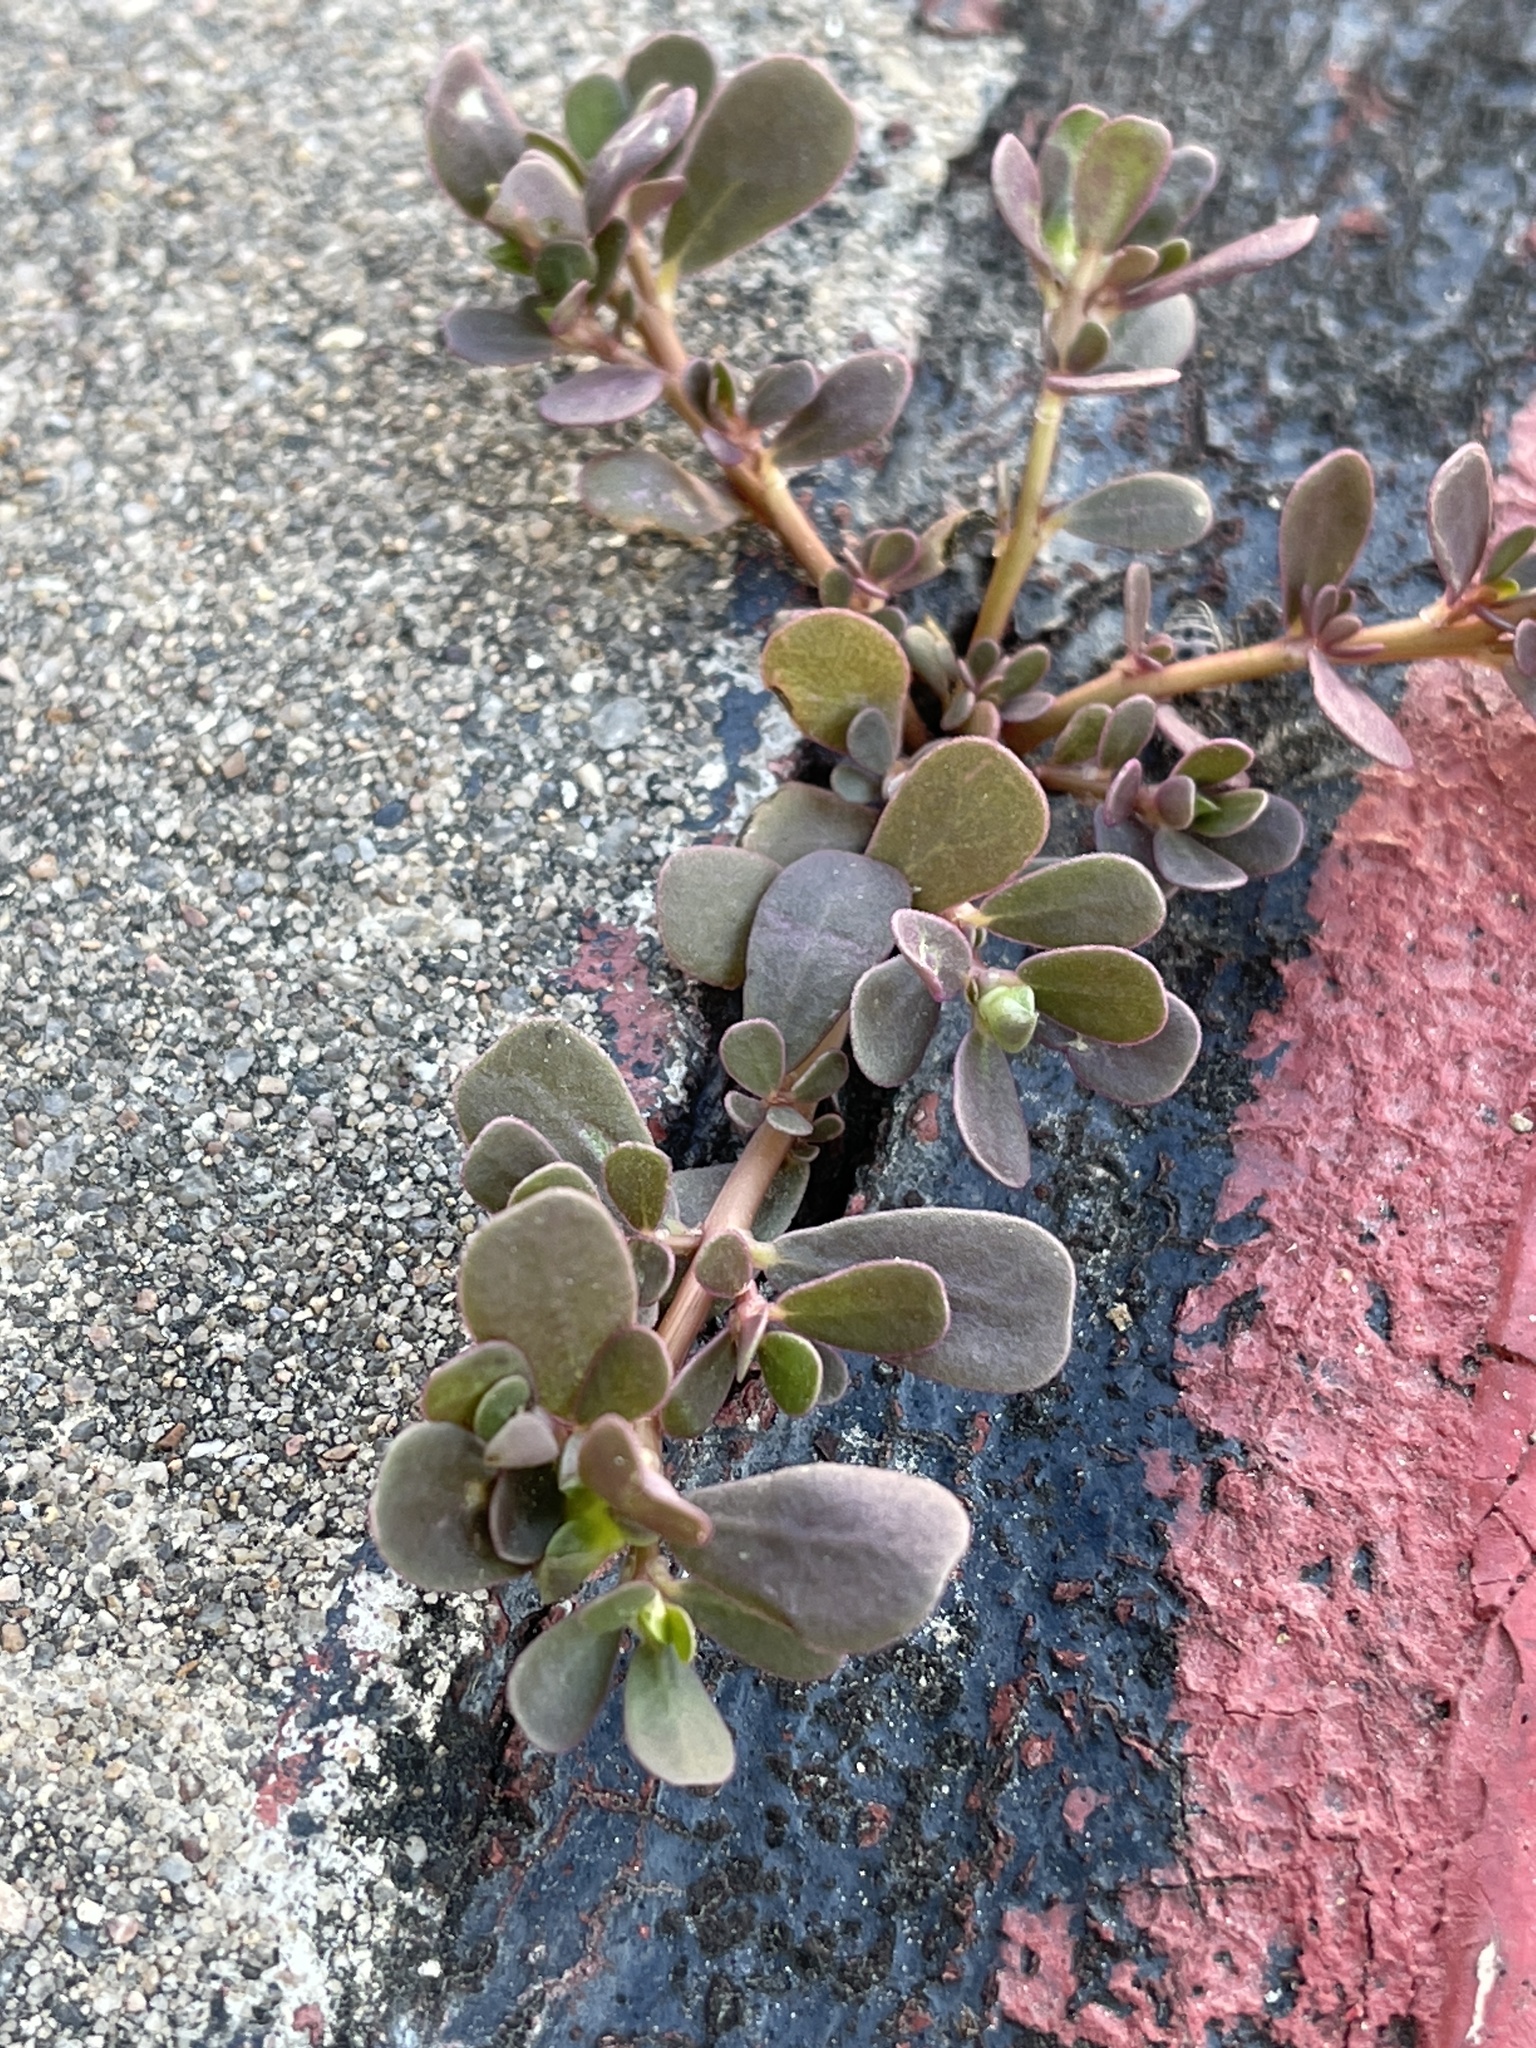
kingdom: Plantae
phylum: Tracheophyta
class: Magnoliopsida
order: Caryophyllales
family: Portulacaceae
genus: Portulaca
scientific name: Portulaca oleracea
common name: Common purslane
